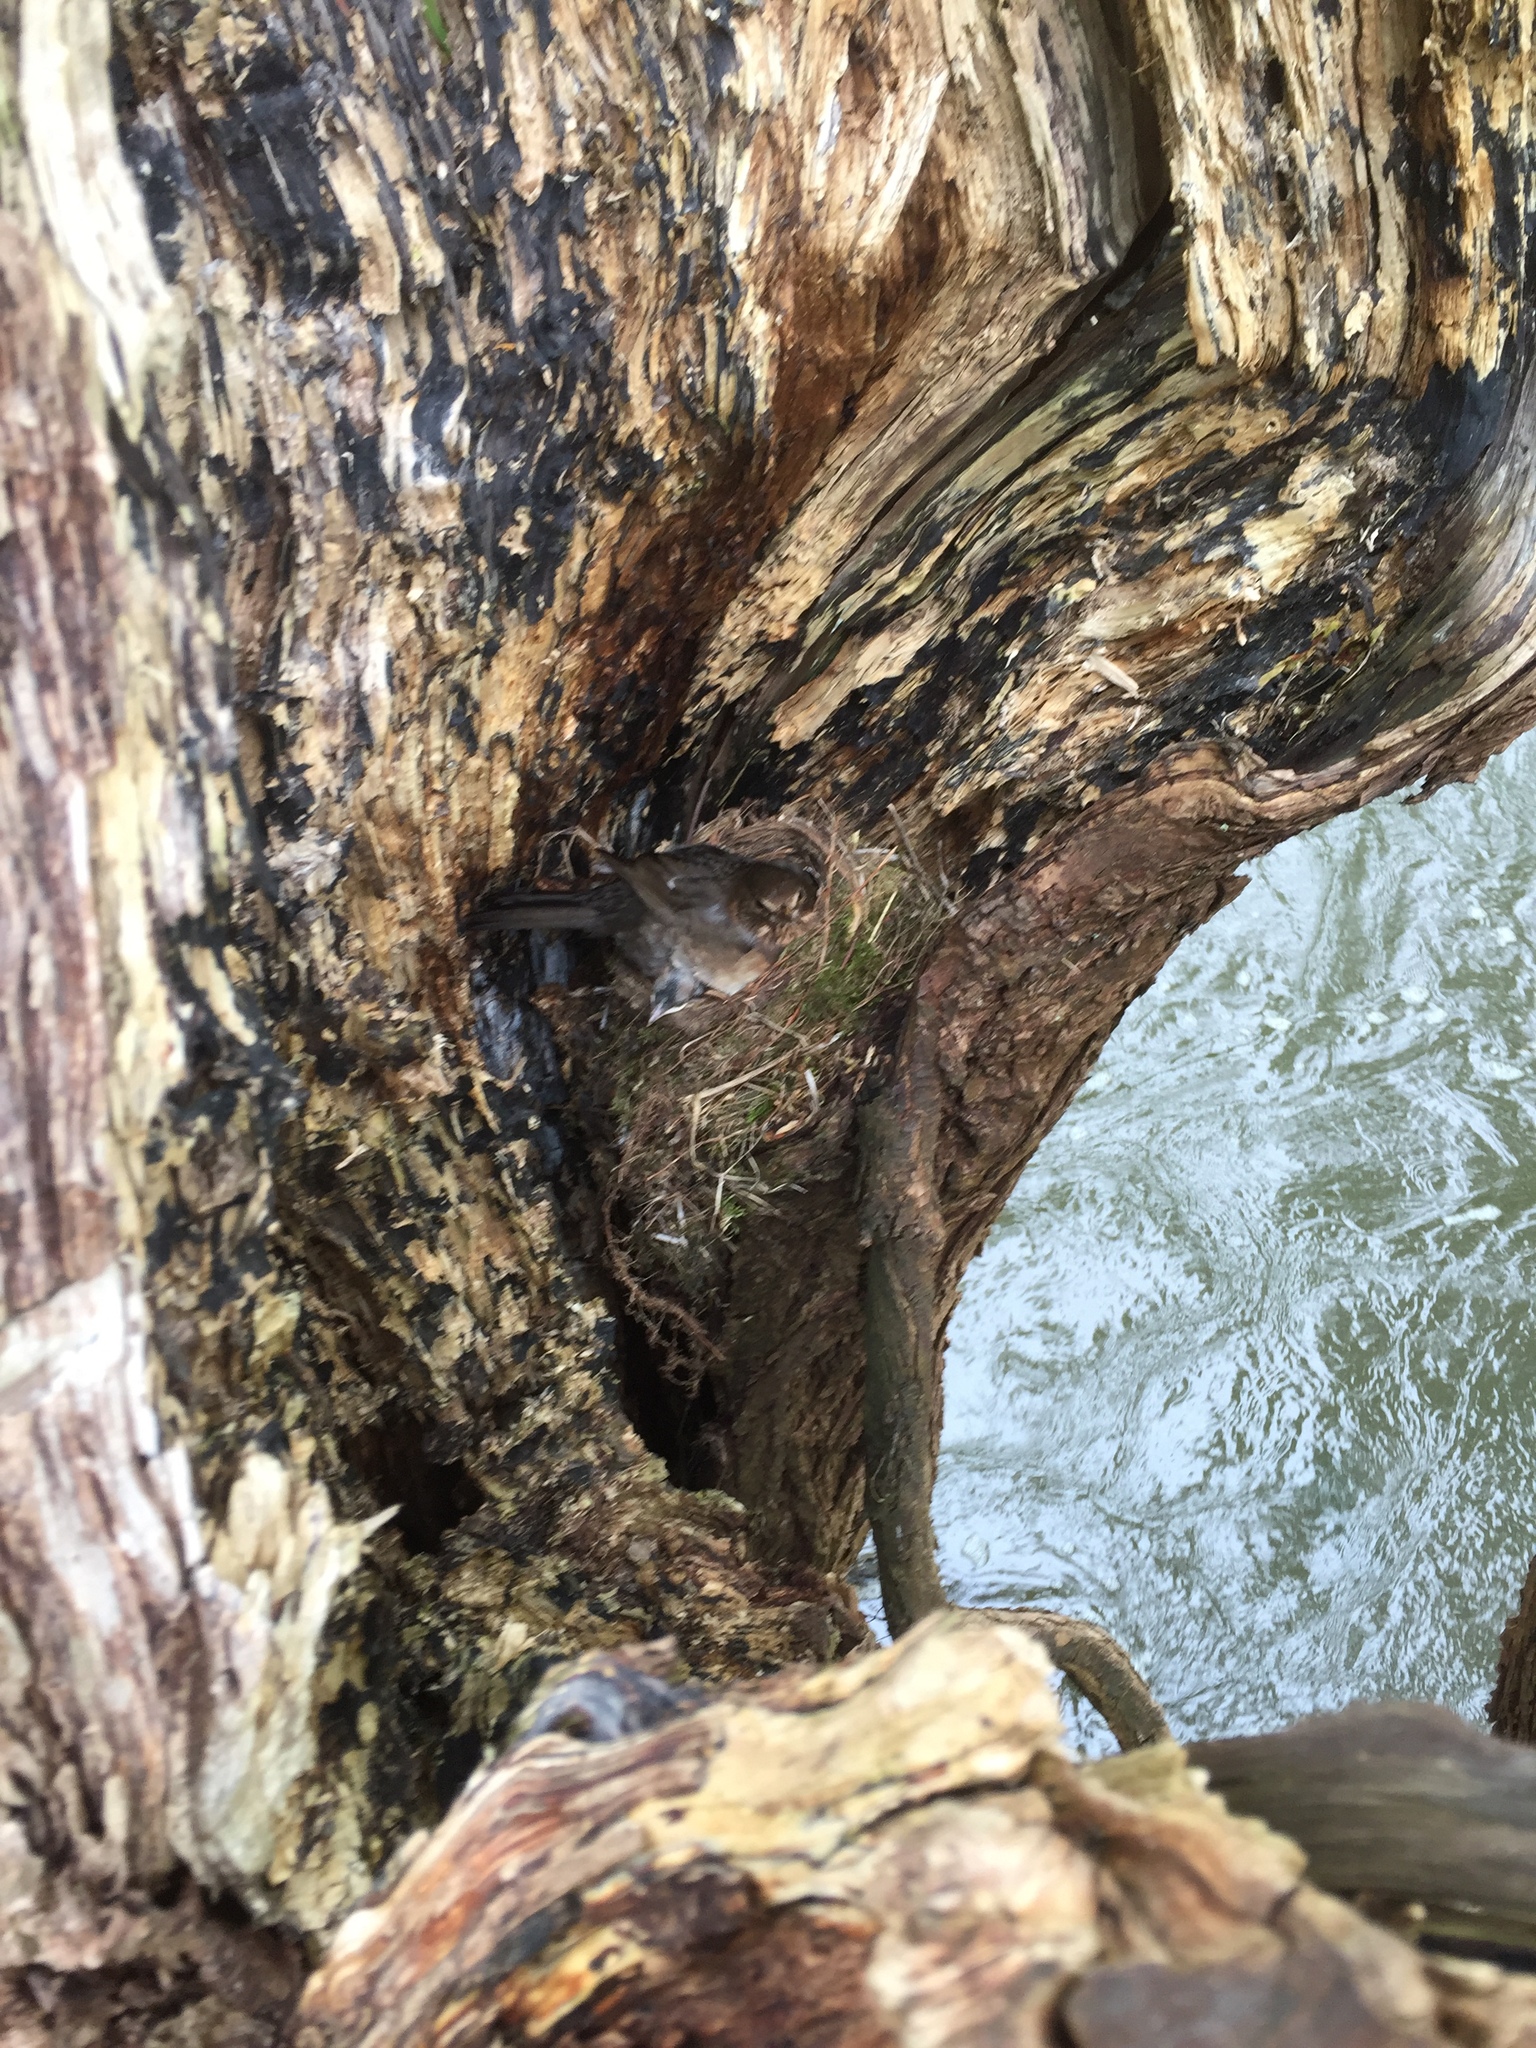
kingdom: Animalia
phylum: Chordata
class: Aves
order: Passeriformes
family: Turdidae
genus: Turdus
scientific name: Turdus merula
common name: Common blackbird
